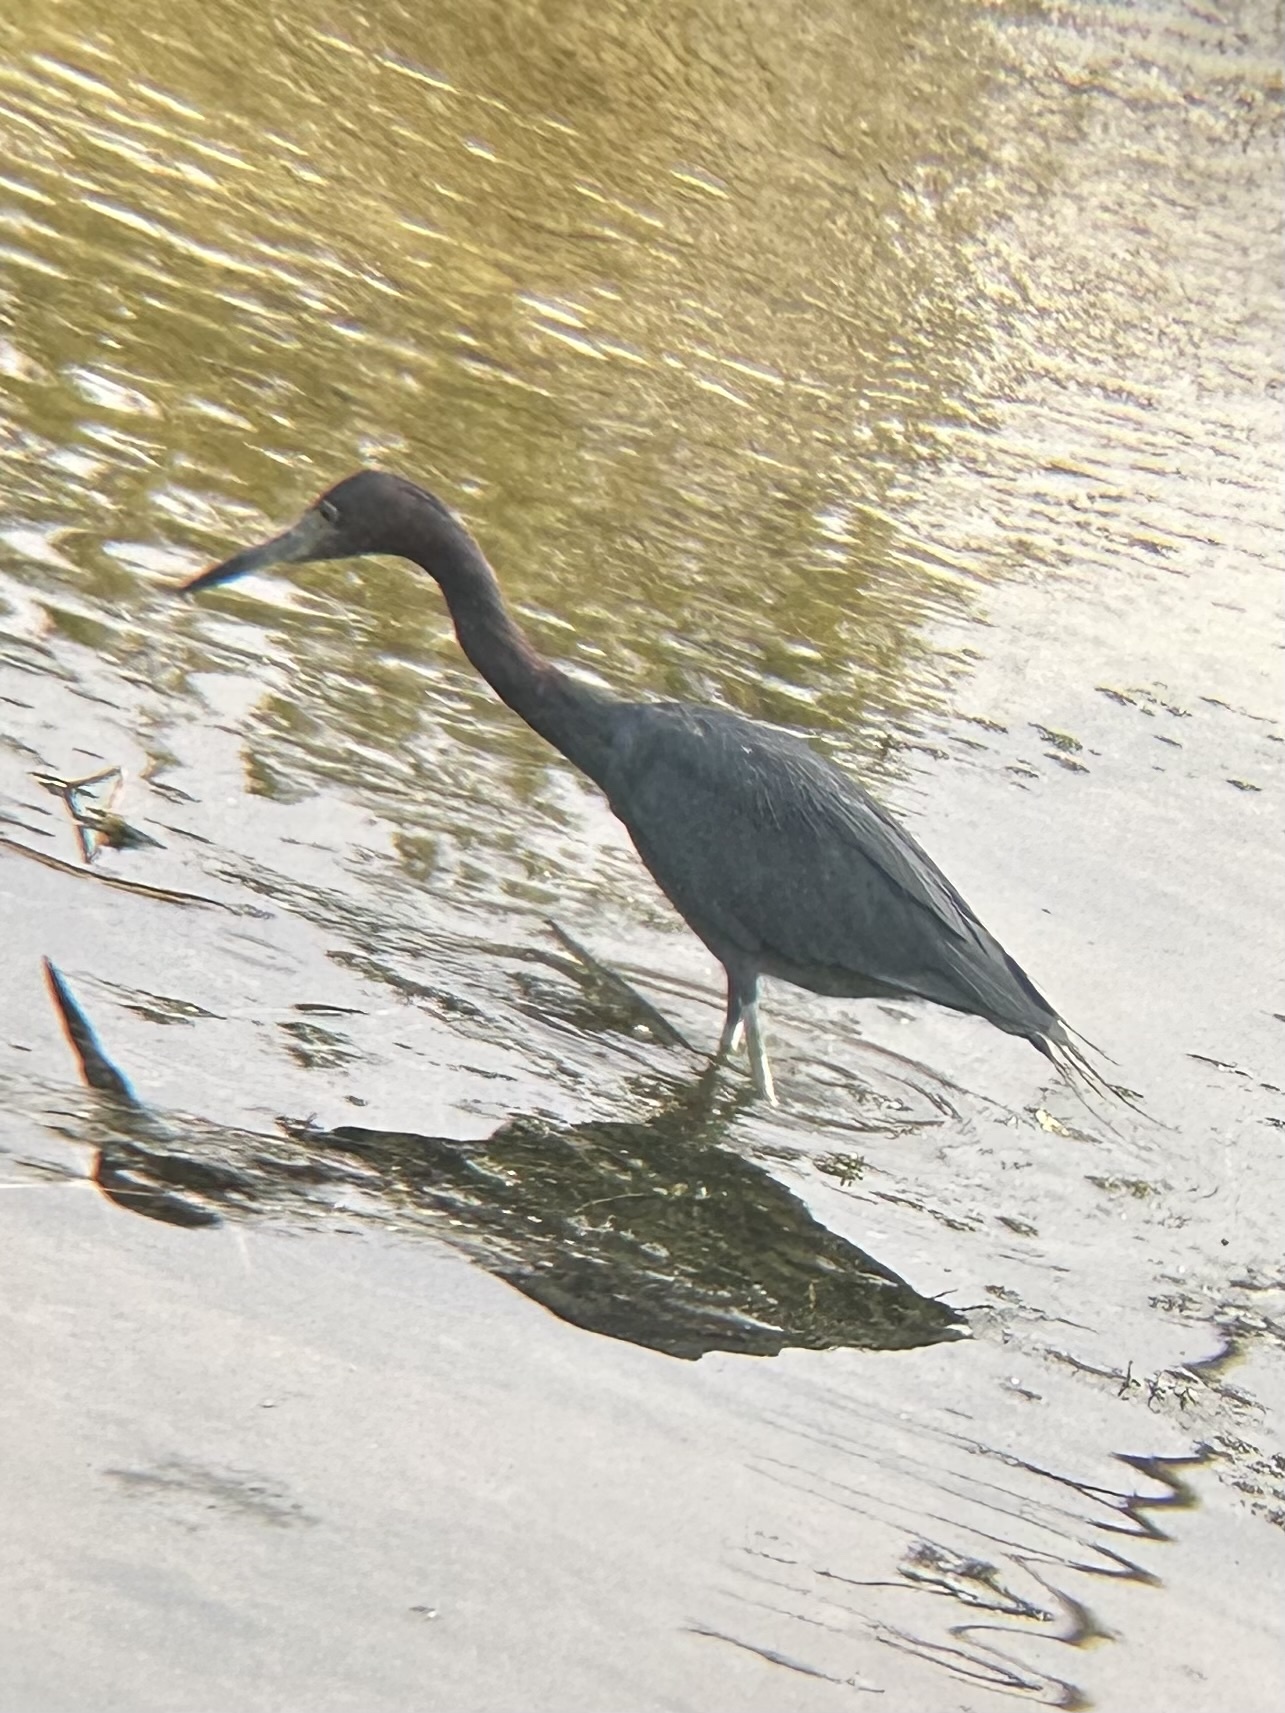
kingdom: Animalia
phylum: Chordata
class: Aves
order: Pelecaniformes
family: Ardeidae
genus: Egretta
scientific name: Egretta caerulea
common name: Little blue heron
